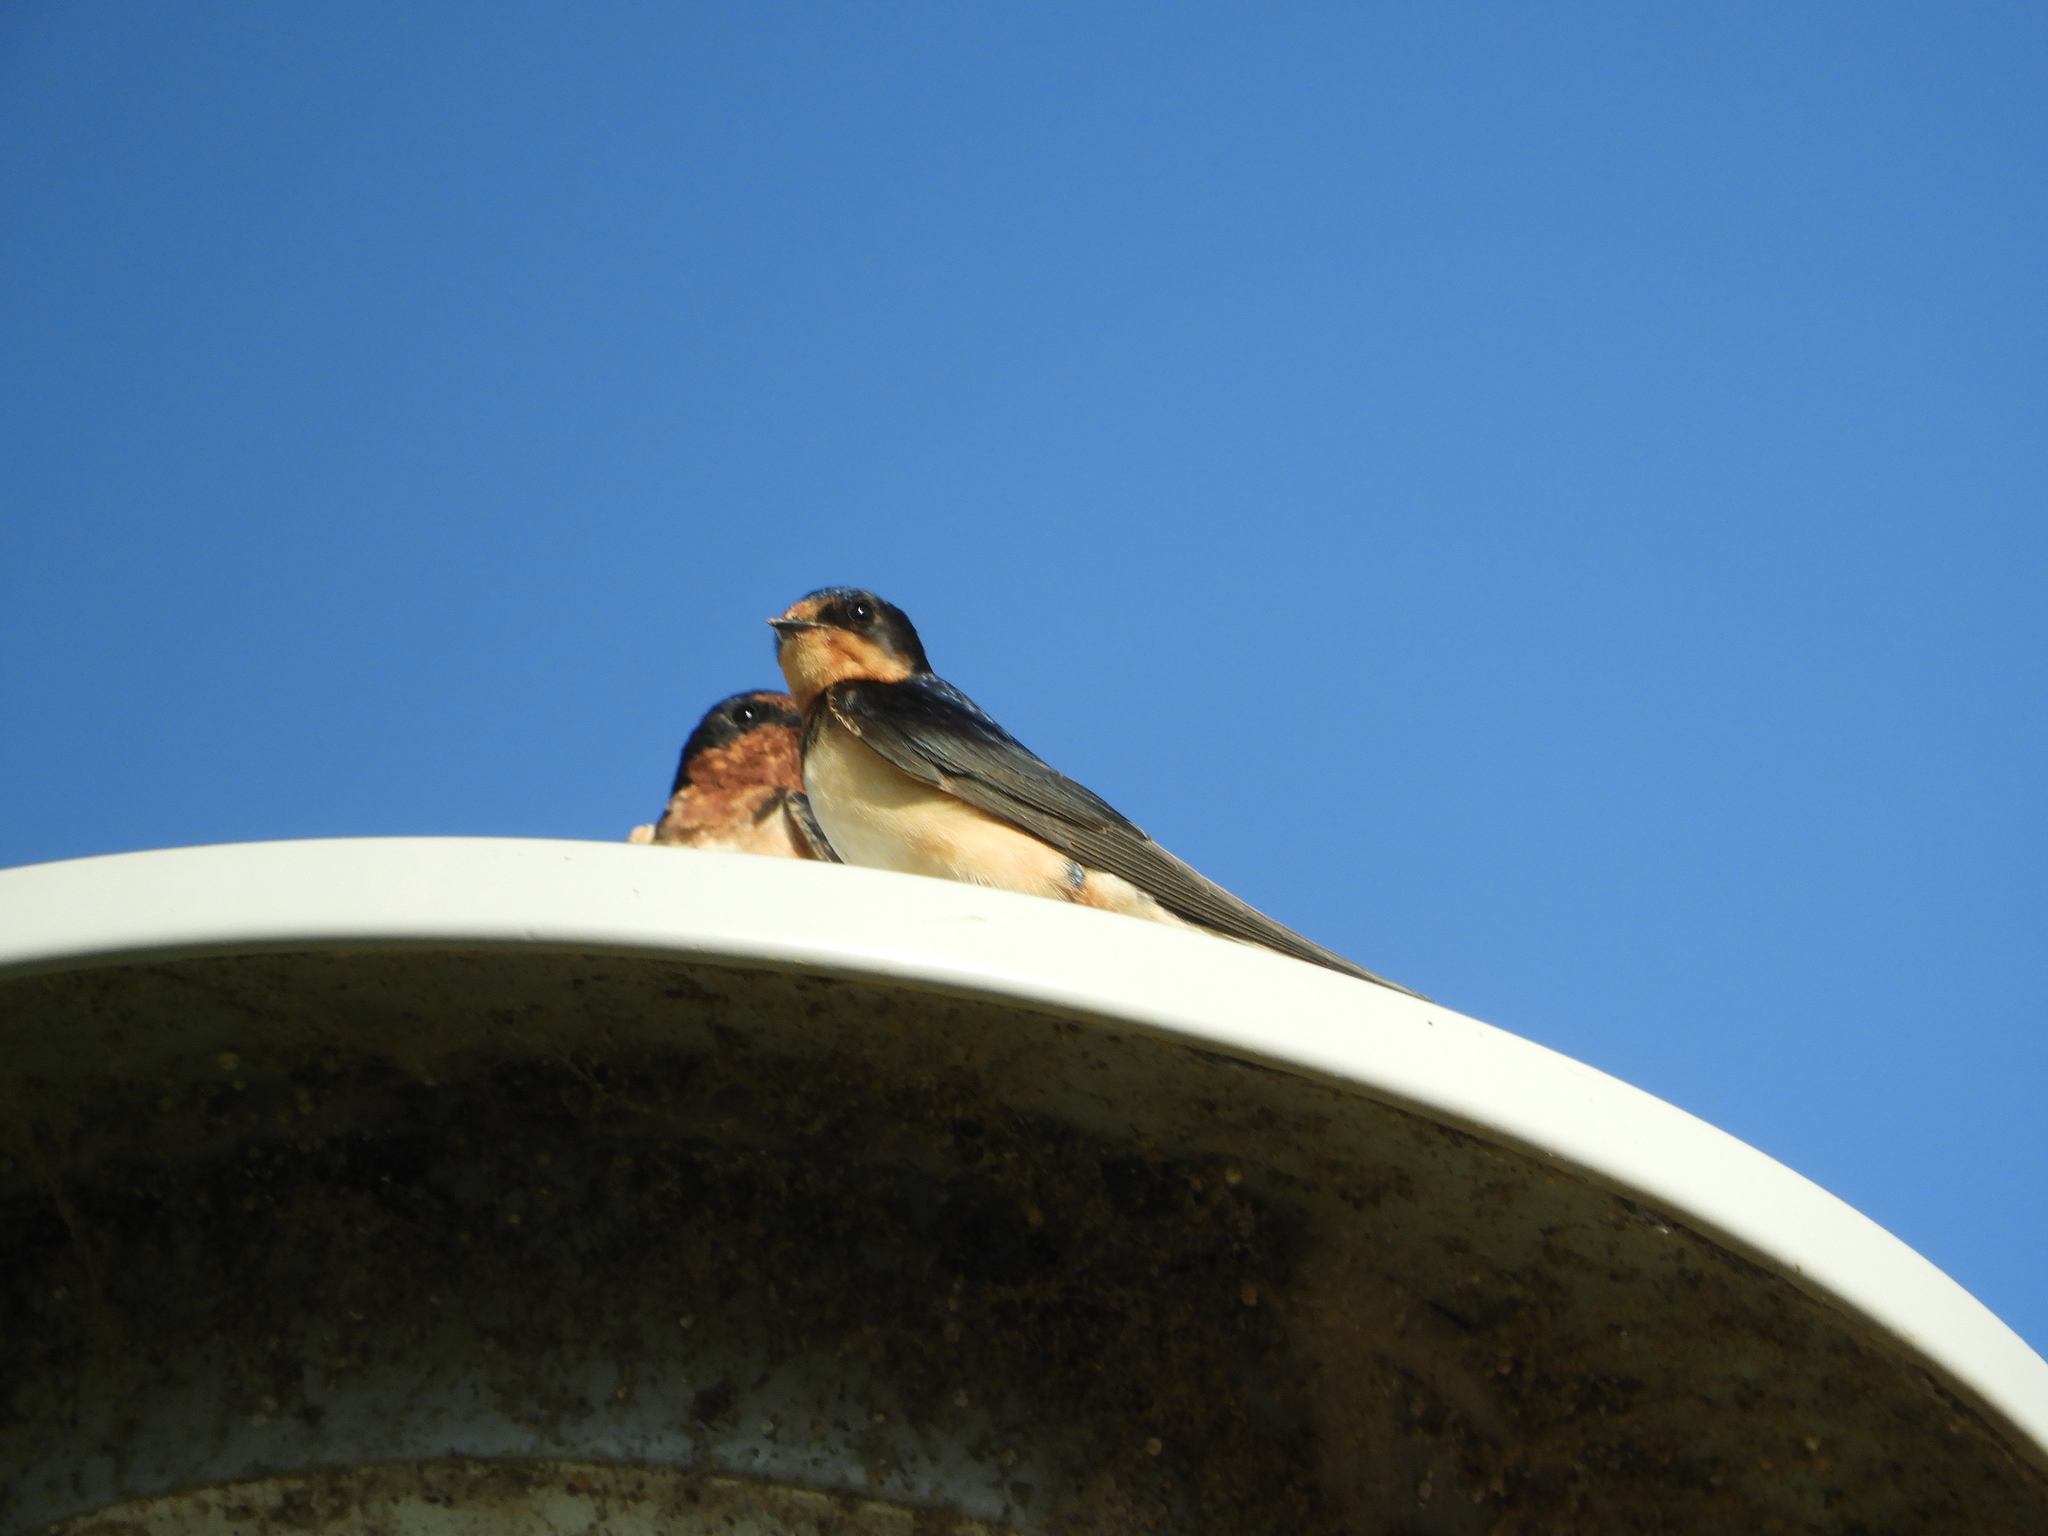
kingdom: Animalia
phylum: Chordata
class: Aves
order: Passeriformes
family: Hirundinidae
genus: Hirundo
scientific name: Hirundo rustica
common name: Barn swallow
